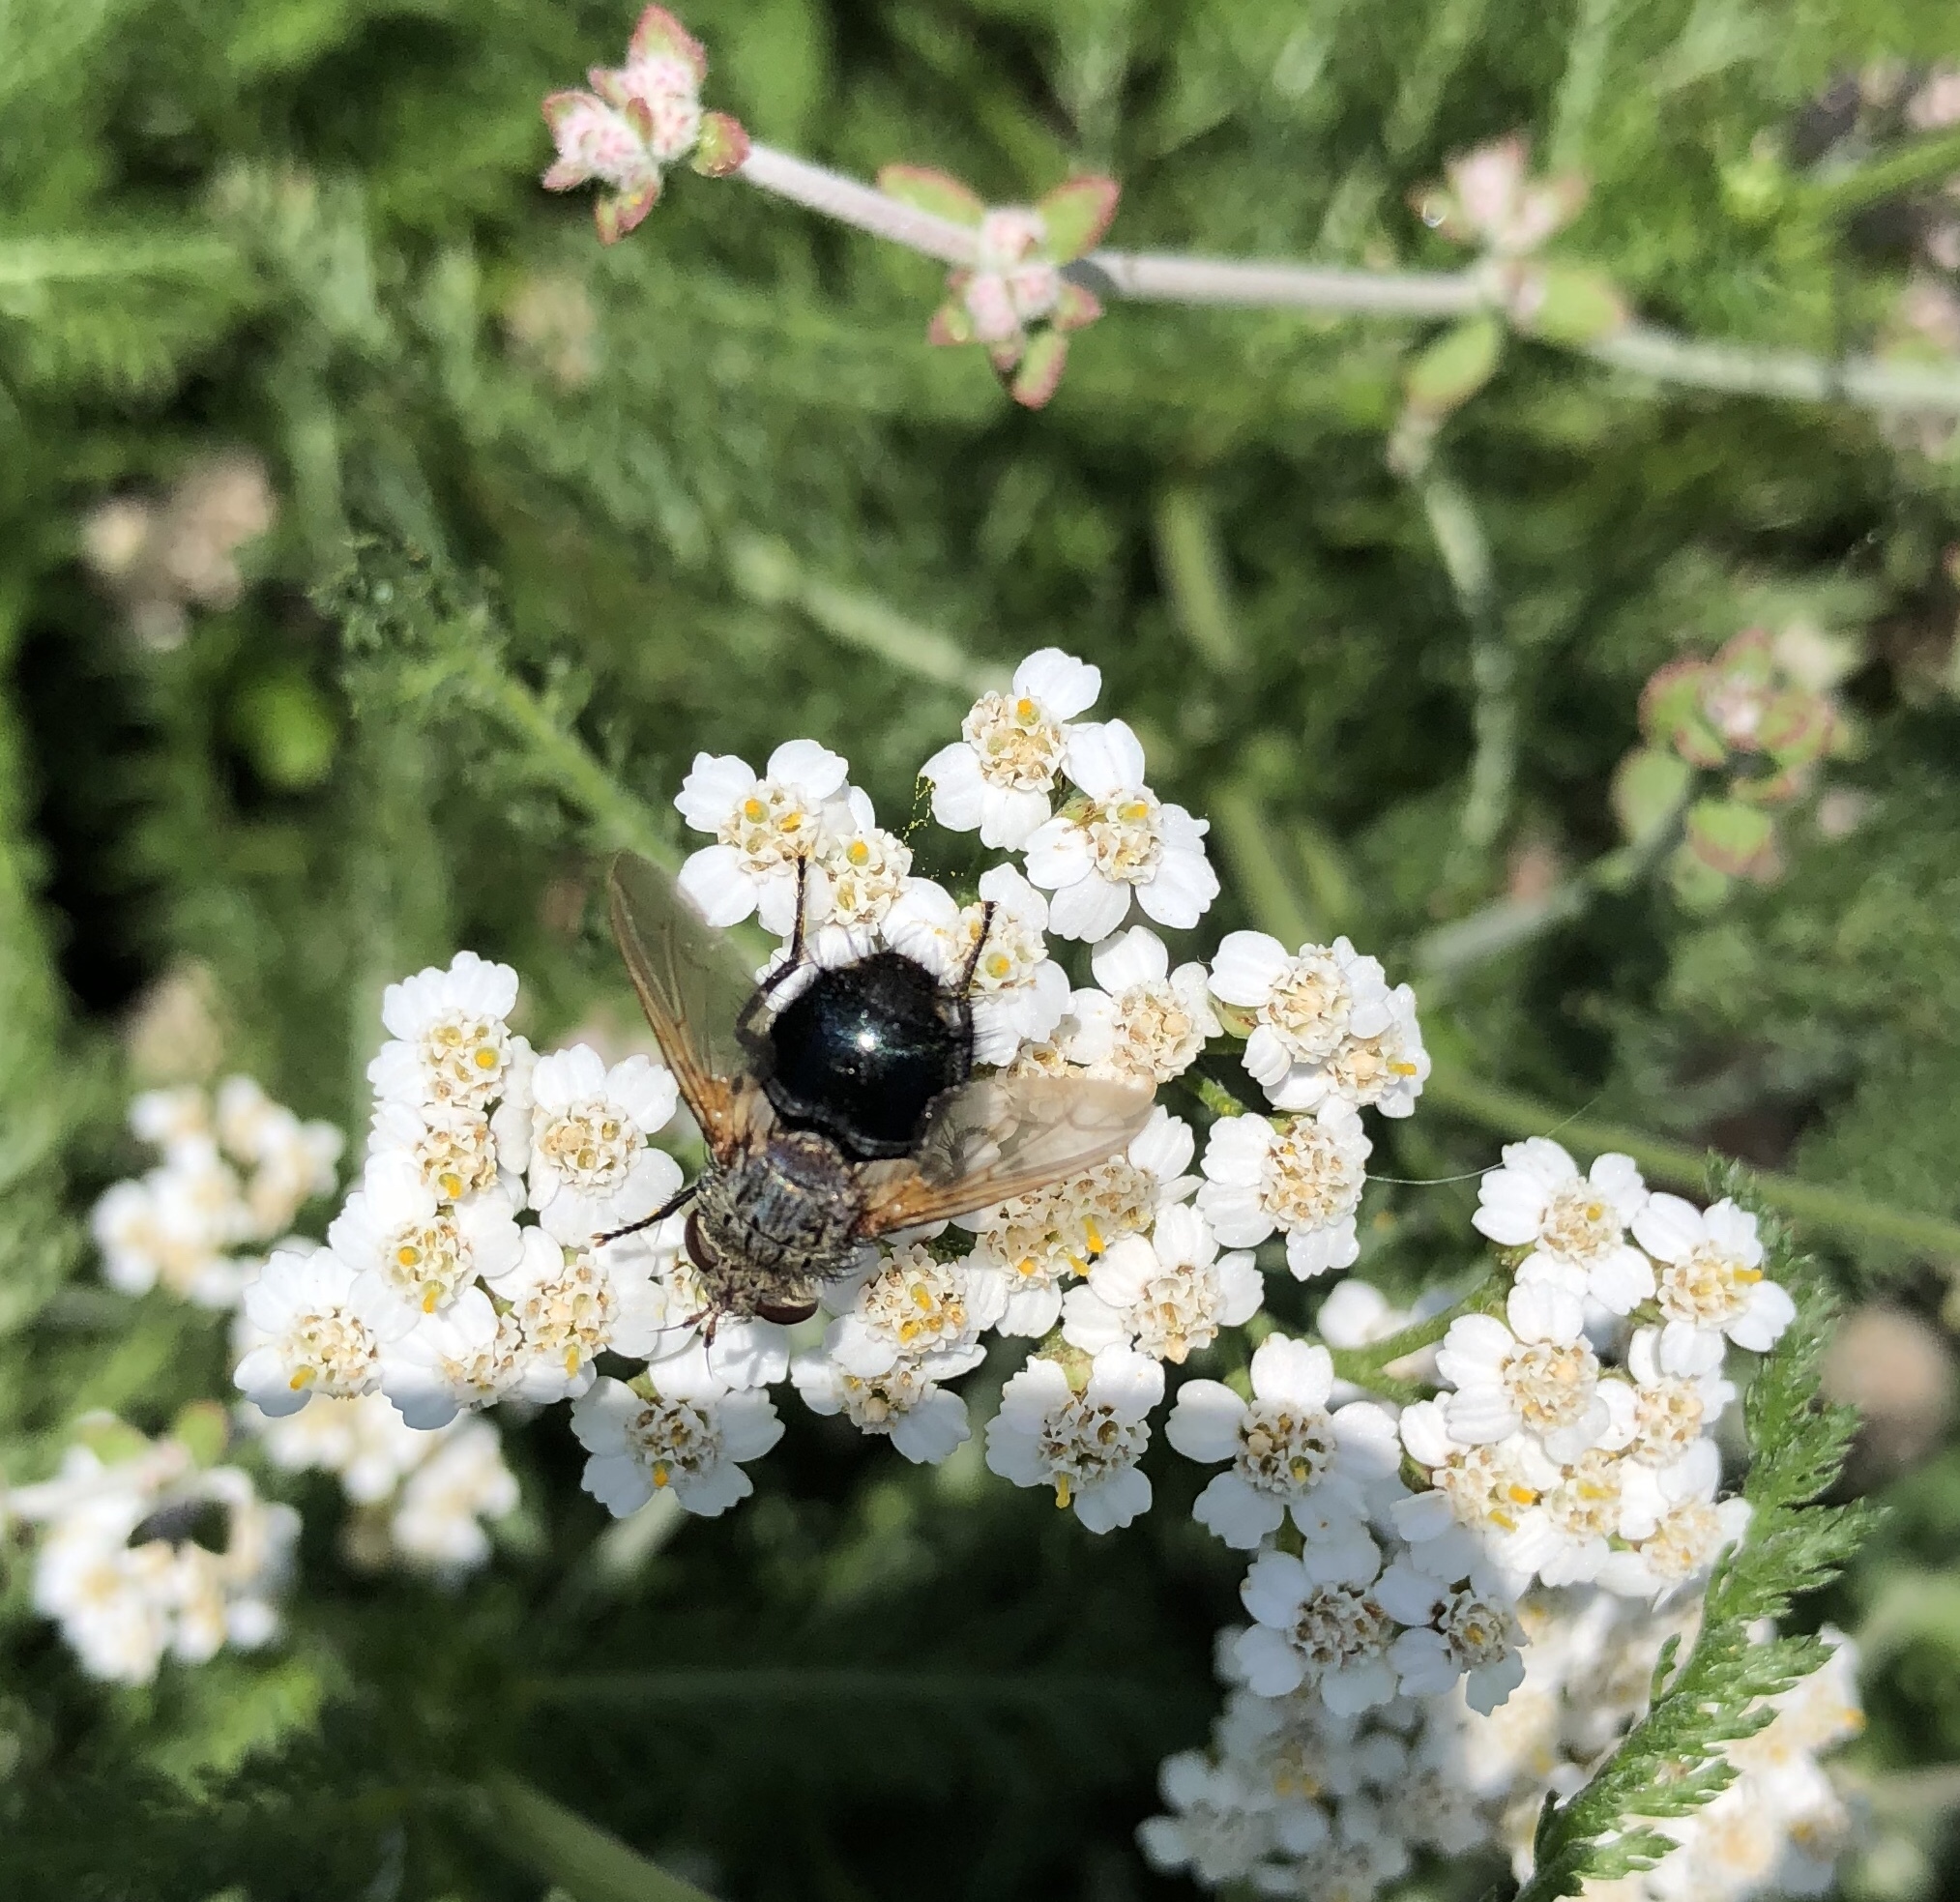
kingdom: Animalia
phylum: Arthropoda
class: Insecta
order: Diptera
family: Tachinidae
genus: Archytas
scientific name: Archytas
